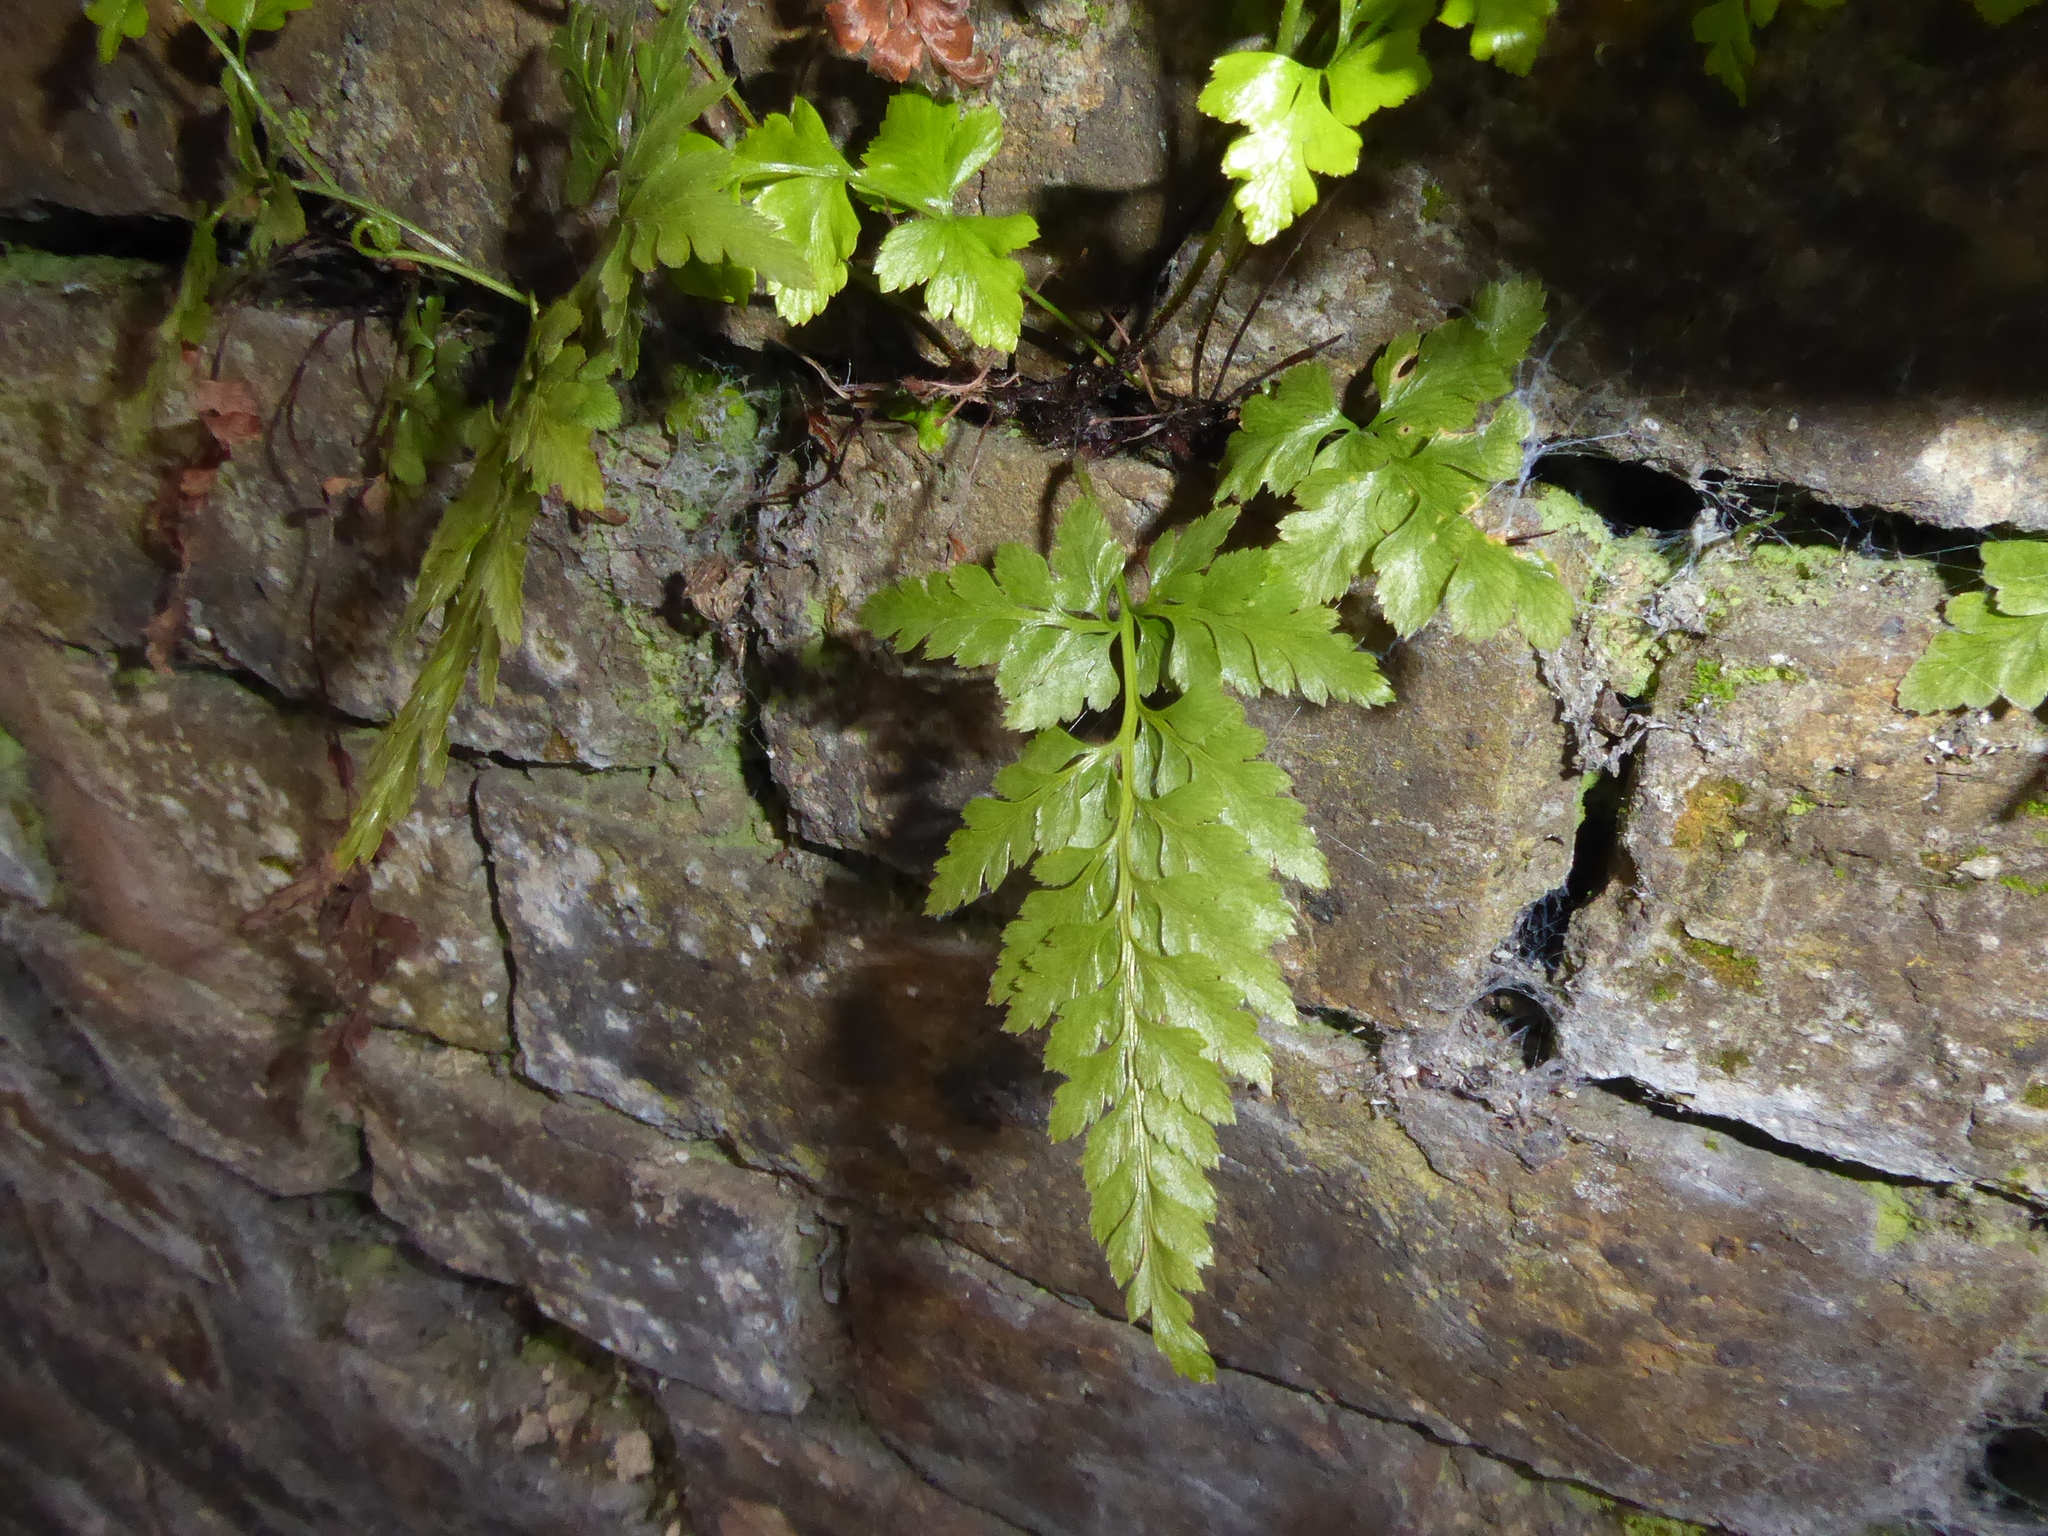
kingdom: Plantae
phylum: Tracheophyta
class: Polypodiopsida
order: Polypodiales
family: Aspleniaceae
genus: Asplenium
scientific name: Asplenium adiantum-nigrum
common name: Black spleenwort
